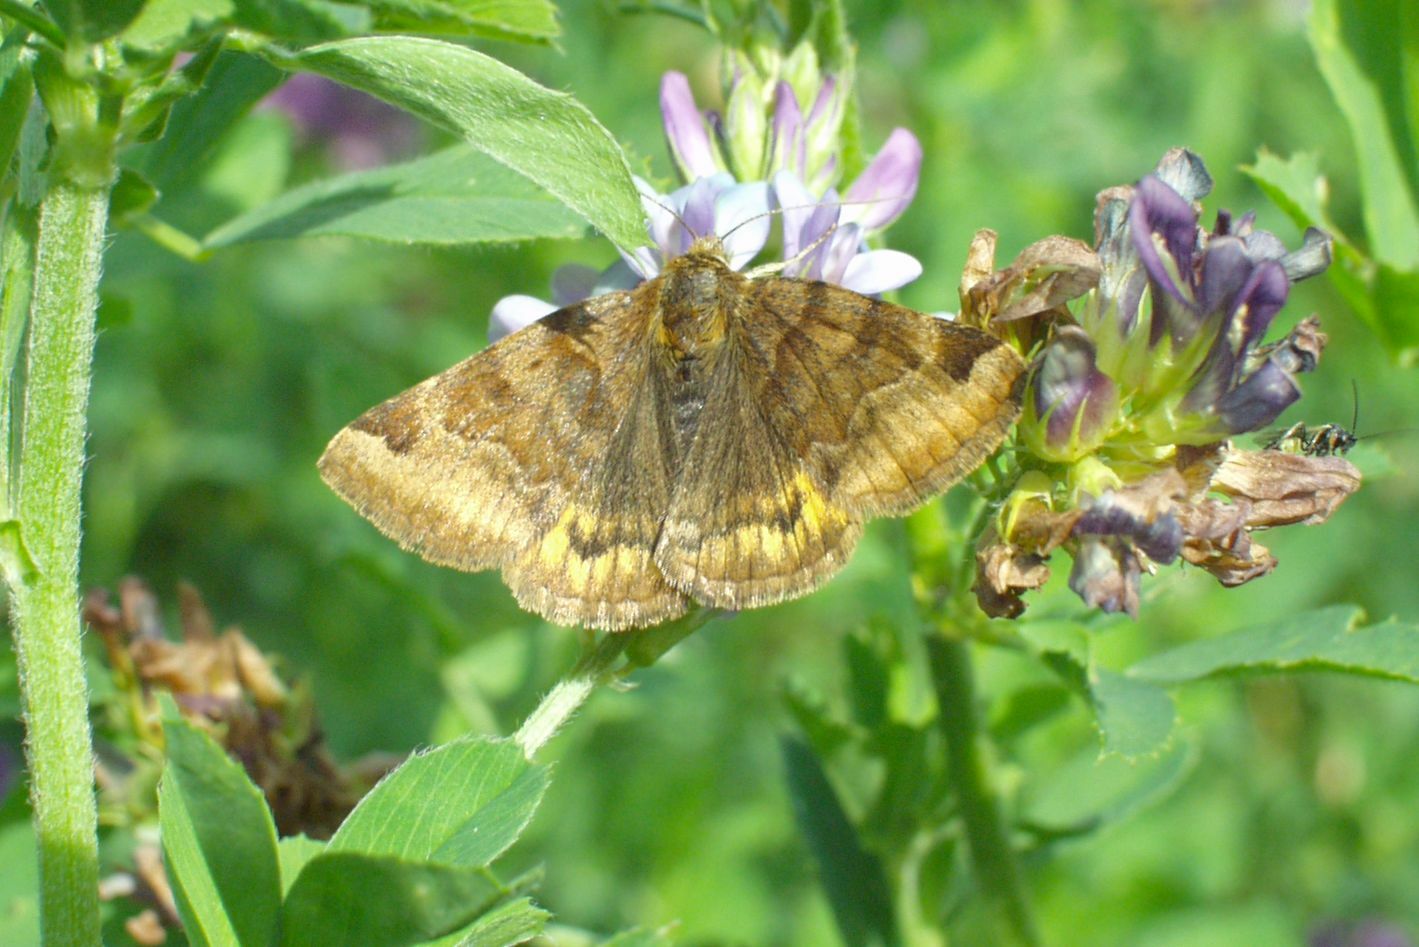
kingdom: Animalia
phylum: Arthropoda
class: Insecta
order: Lepidoptera
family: Erebidae
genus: Euclidia
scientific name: Euclidia glyphica
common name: Burnet companion
